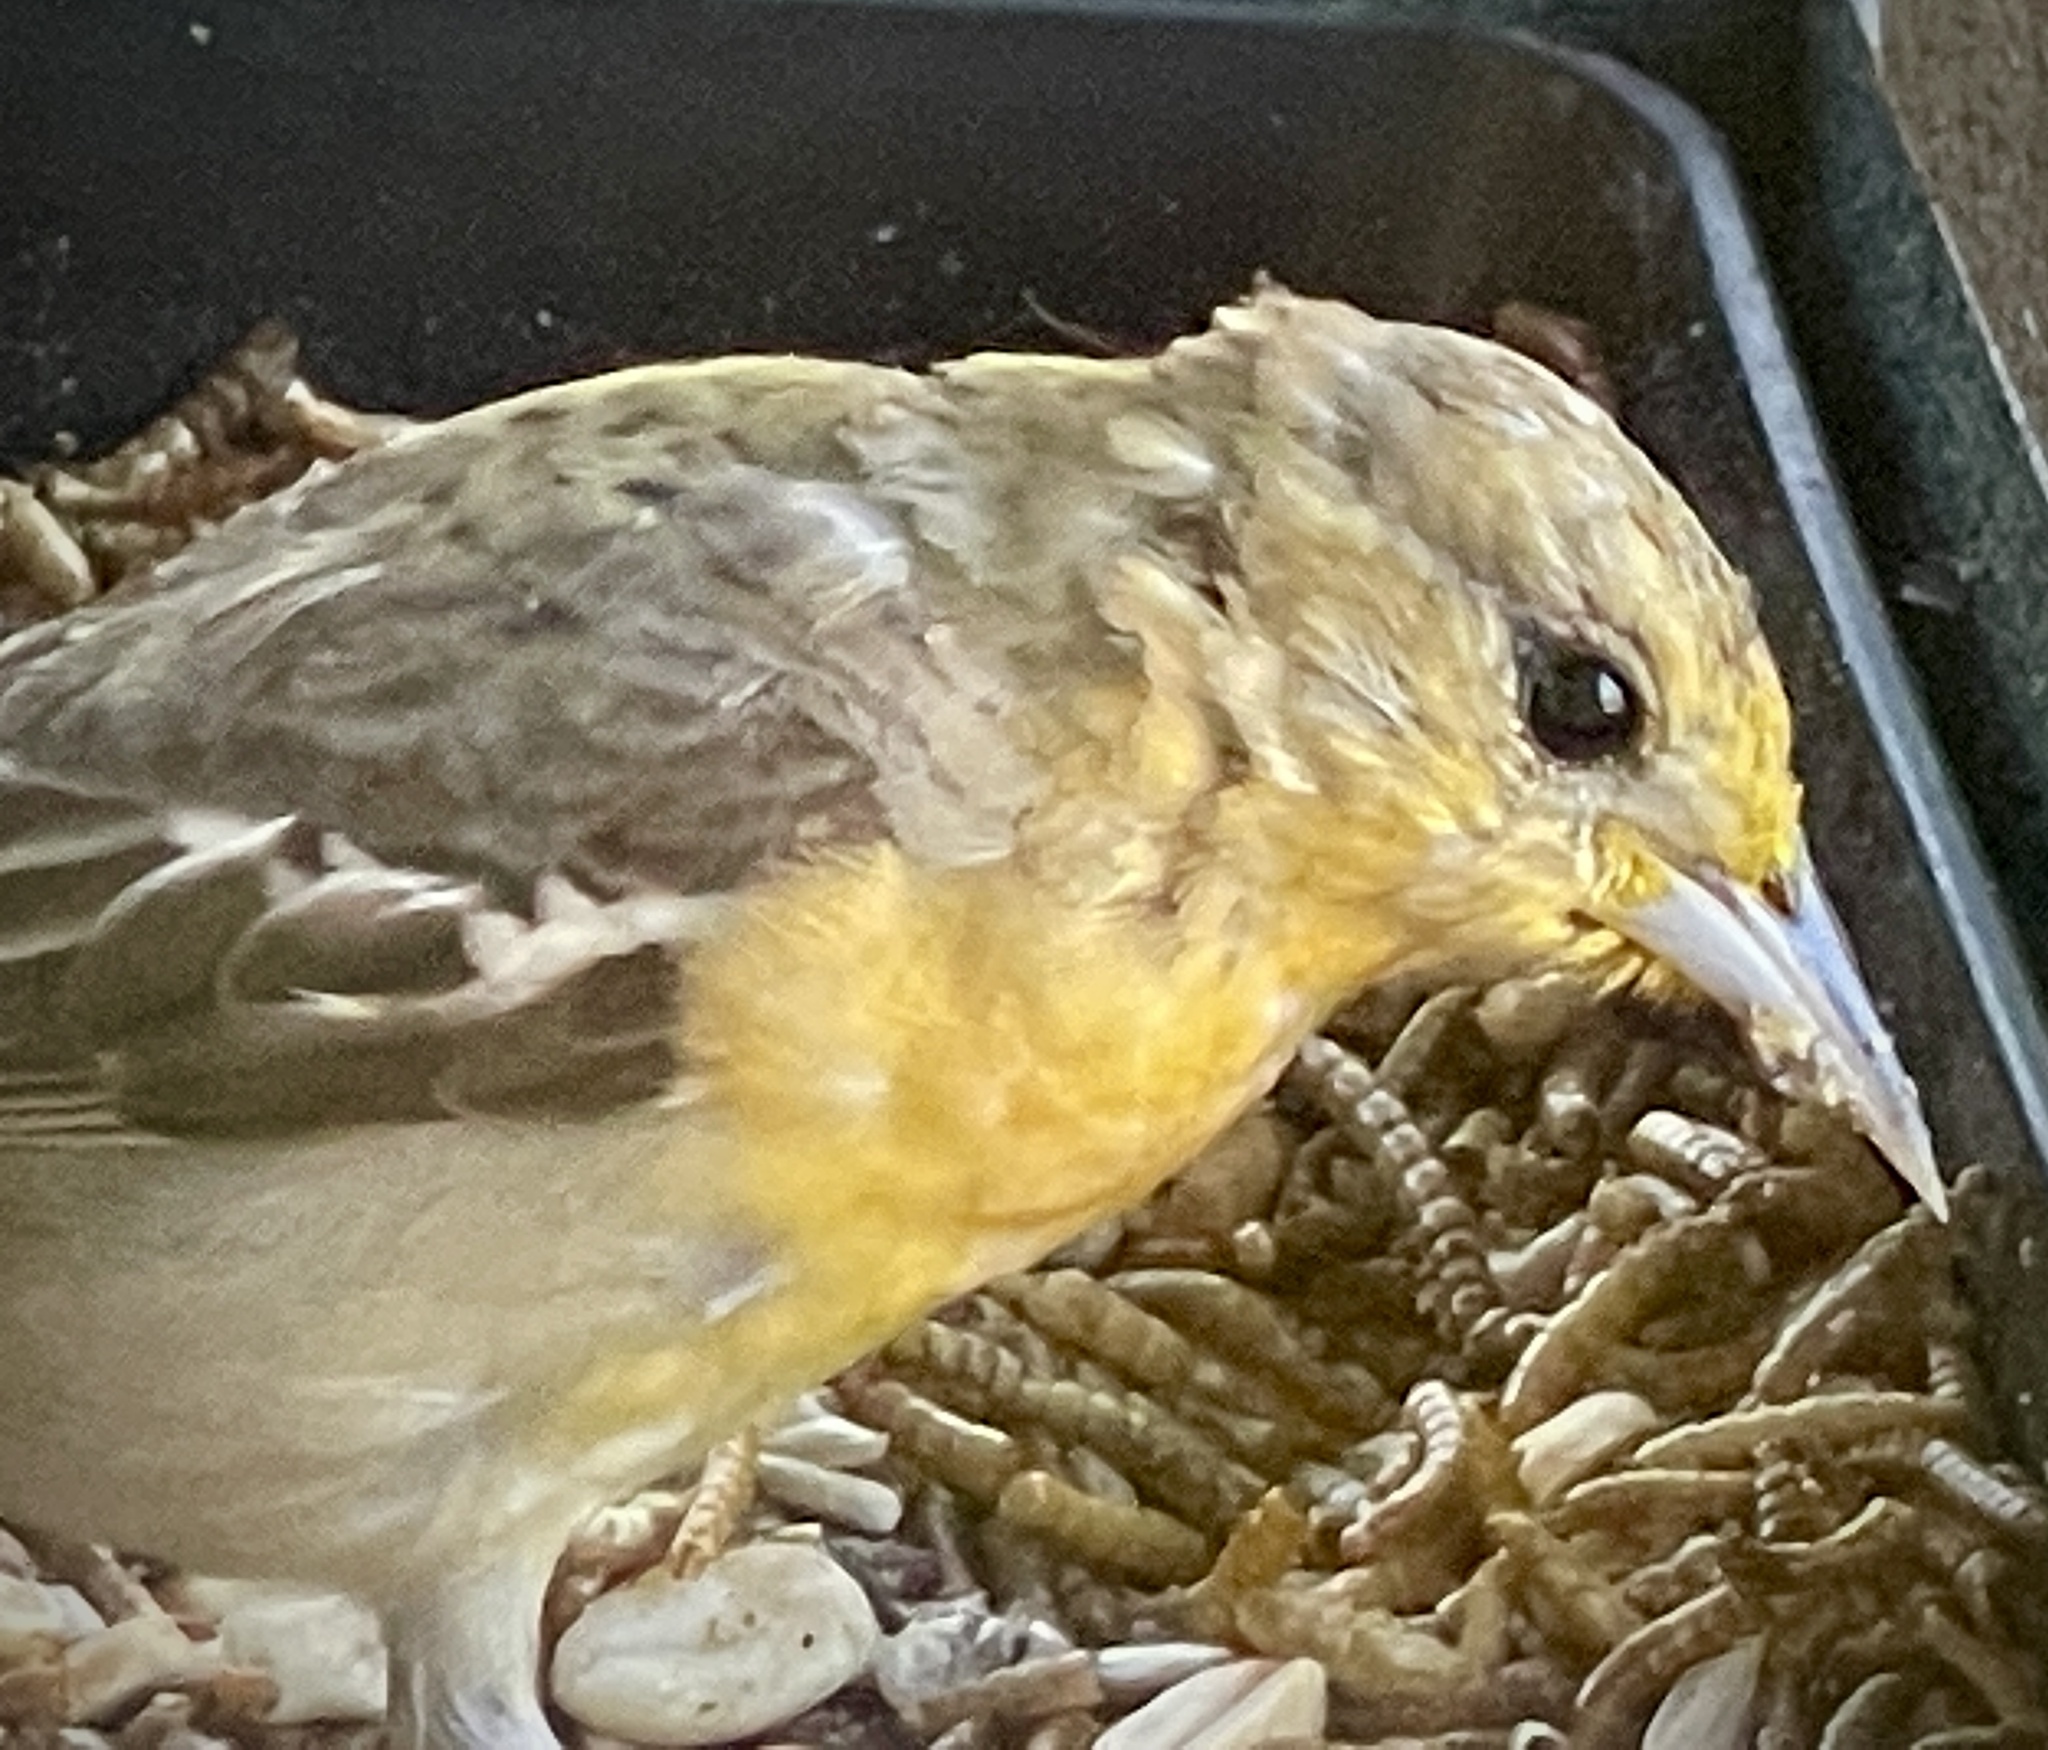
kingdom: Animalia
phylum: Chordata
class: Aves
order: Passeriformes
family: Icteridae
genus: Icterus
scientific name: Icterus galbula
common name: Baltimore oriole
